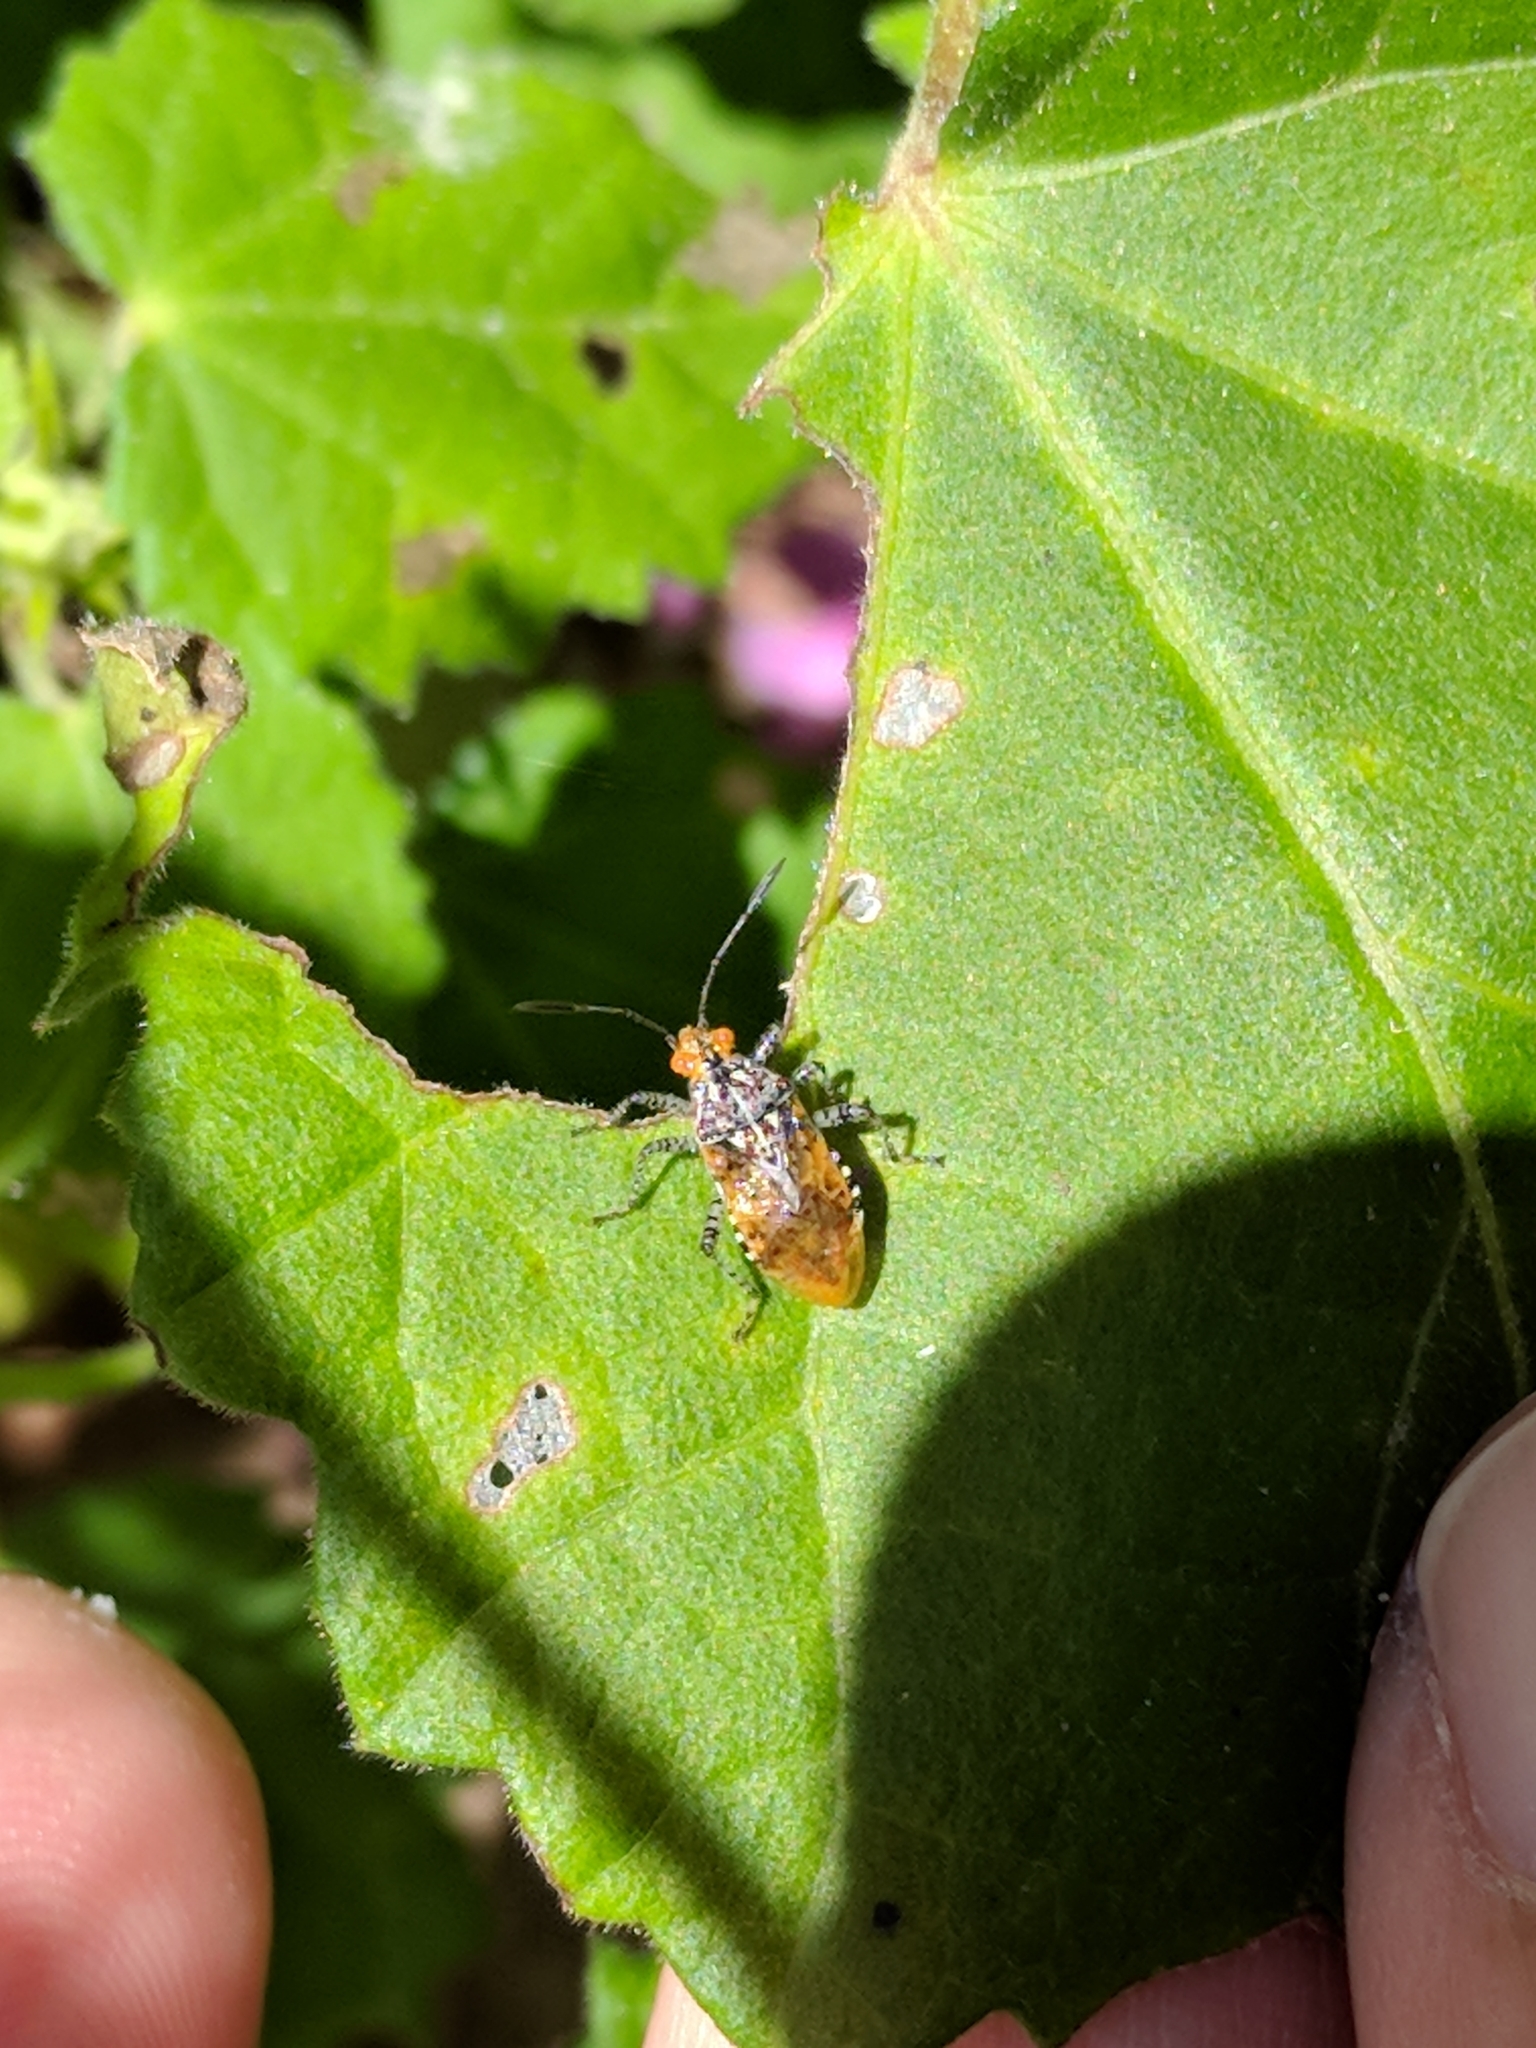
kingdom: Animalia
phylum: Arthropoda
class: Insecta
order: Hemiptera
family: Rhopalidae
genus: Niesthrea
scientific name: Niesthrea louisianica
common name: Scentless plant bug
